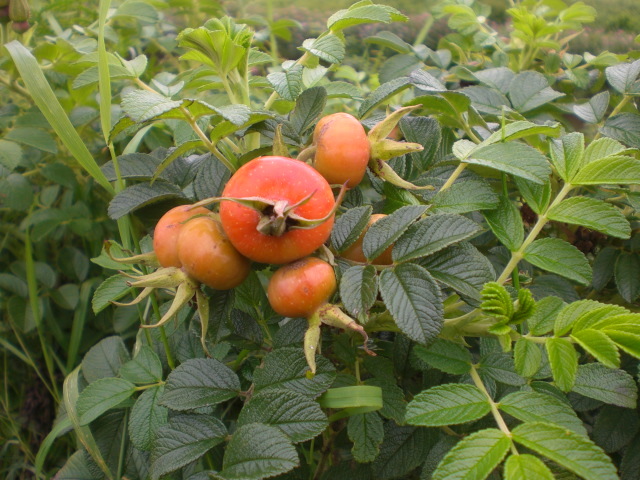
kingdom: Plantae
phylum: Tracheophyta
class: Magnoliopsida
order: Rosales
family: Rosaceae
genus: Rosa
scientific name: Rosa rugosa
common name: Japanese rose
